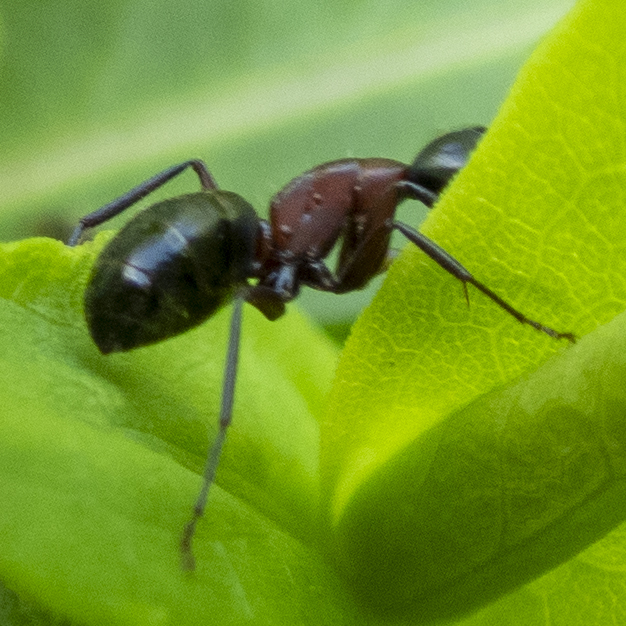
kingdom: Animalia
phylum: Arthropoda
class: Insecta
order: Hymenoptera
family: Formicidae
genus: Camponotus
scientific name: Camponotus novaeboracensis
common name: New york carpenter ant
